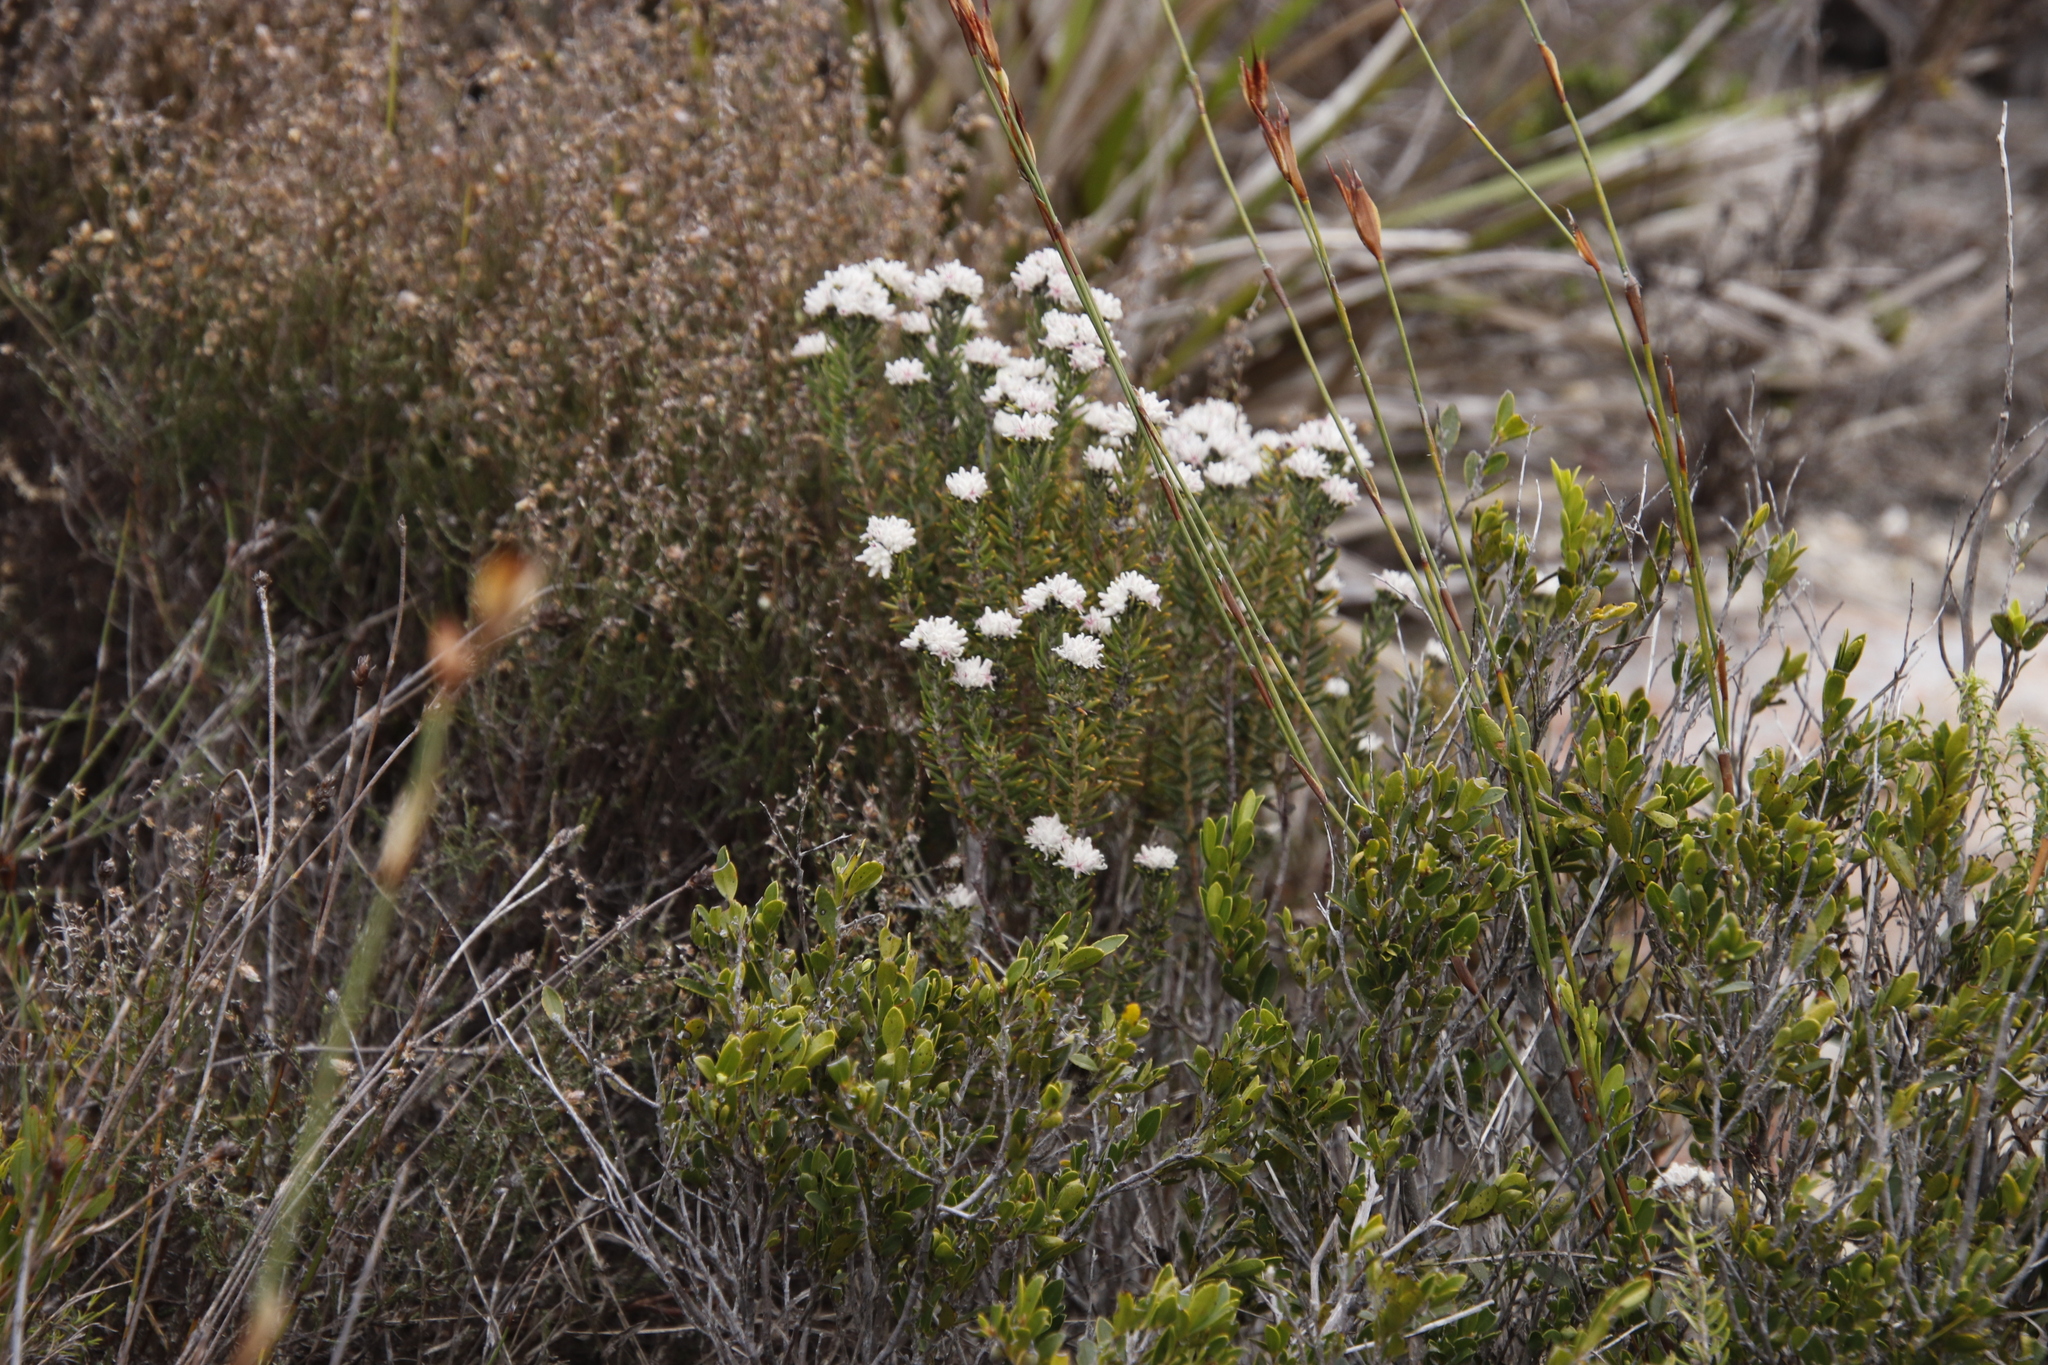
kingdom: Plantae
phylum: Tracheophyta
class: Magnoliopsida
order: Rosales
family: Rhamnaceae
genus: Trichocephalus
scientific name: Trichocephalus stipularis
